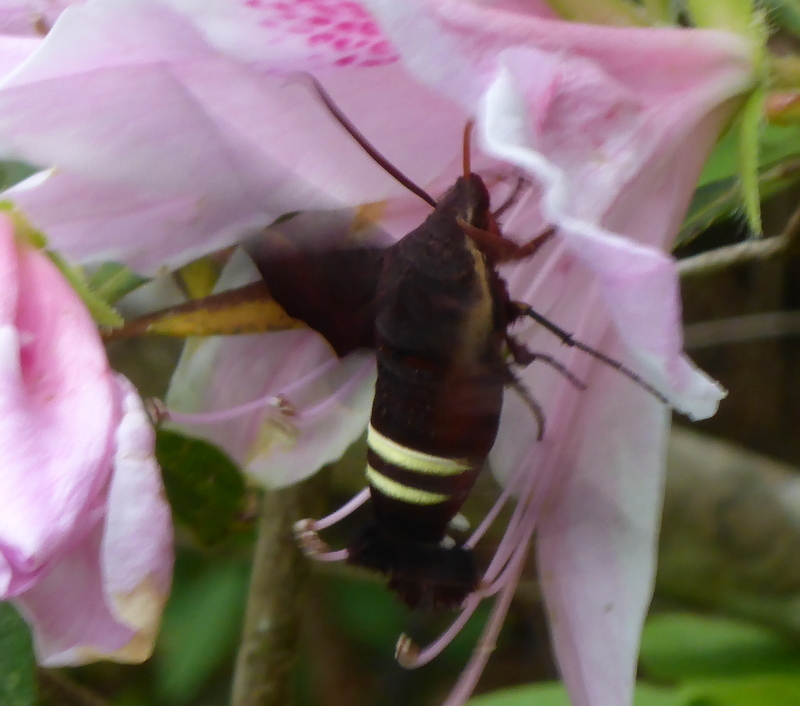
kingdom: Animalia
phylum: Arthropoda
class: Insecta
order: Lepidoptera
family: Sphingidae
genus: Amphion
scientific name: Amphion floridensis
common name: Nessus sphinx
